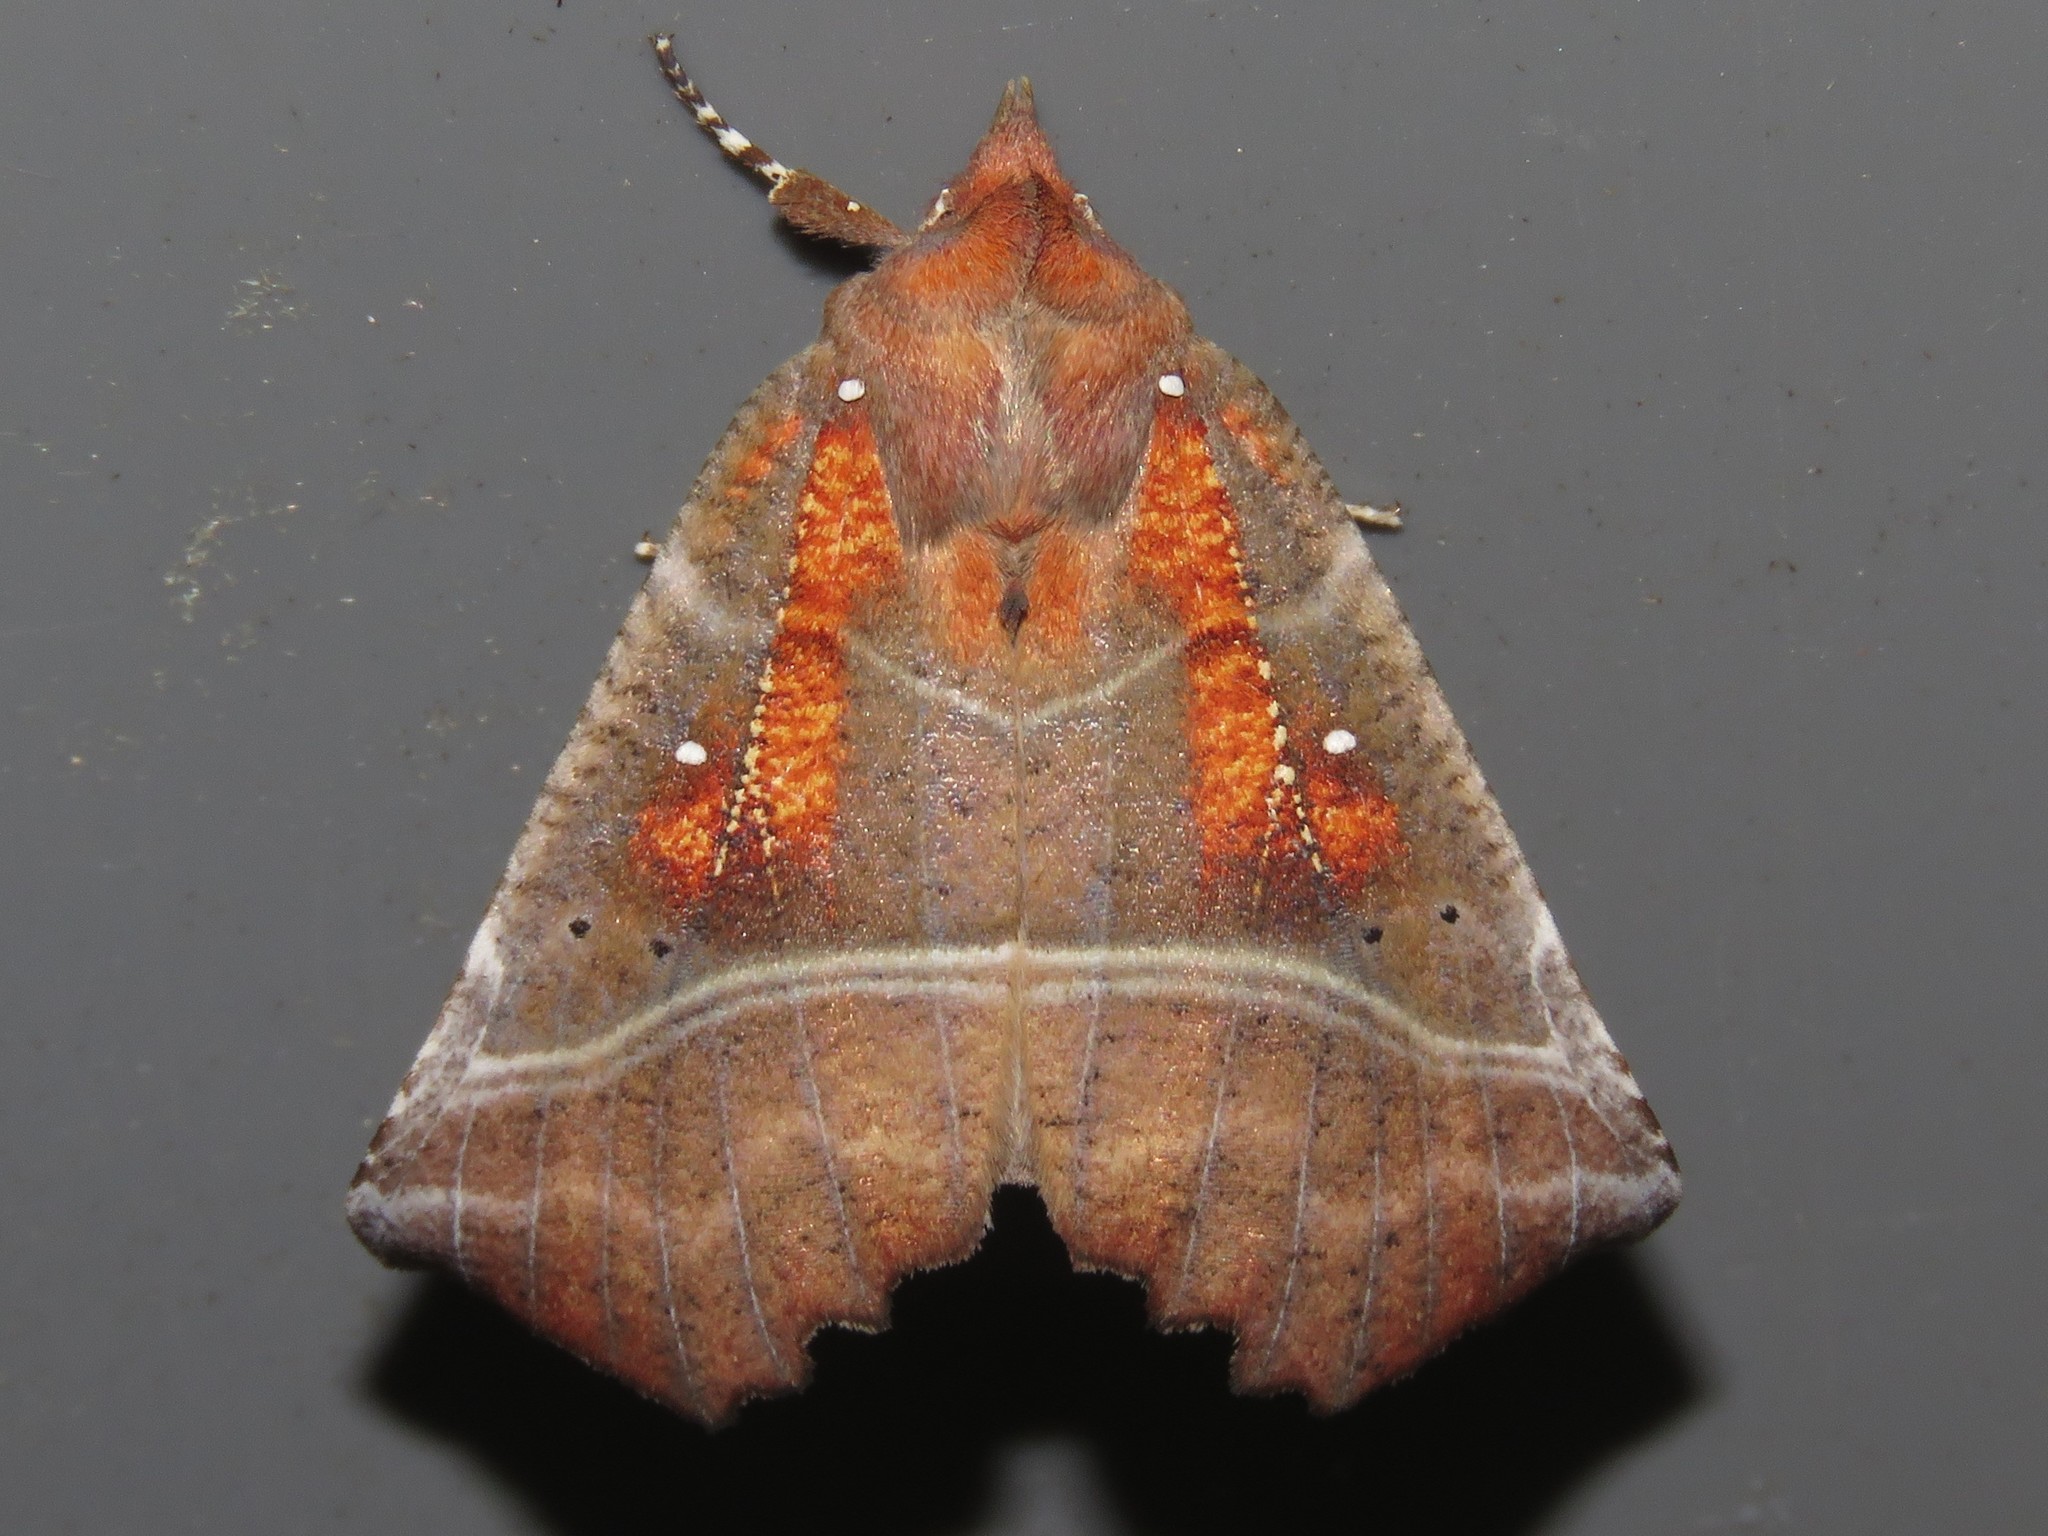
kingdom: Animalia
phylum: Arthropoda
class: Insecta
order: Lepidoptera
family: Erebidae
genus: Scoliopteryx
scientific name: Scoliopteryx libatrix
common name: Herald
